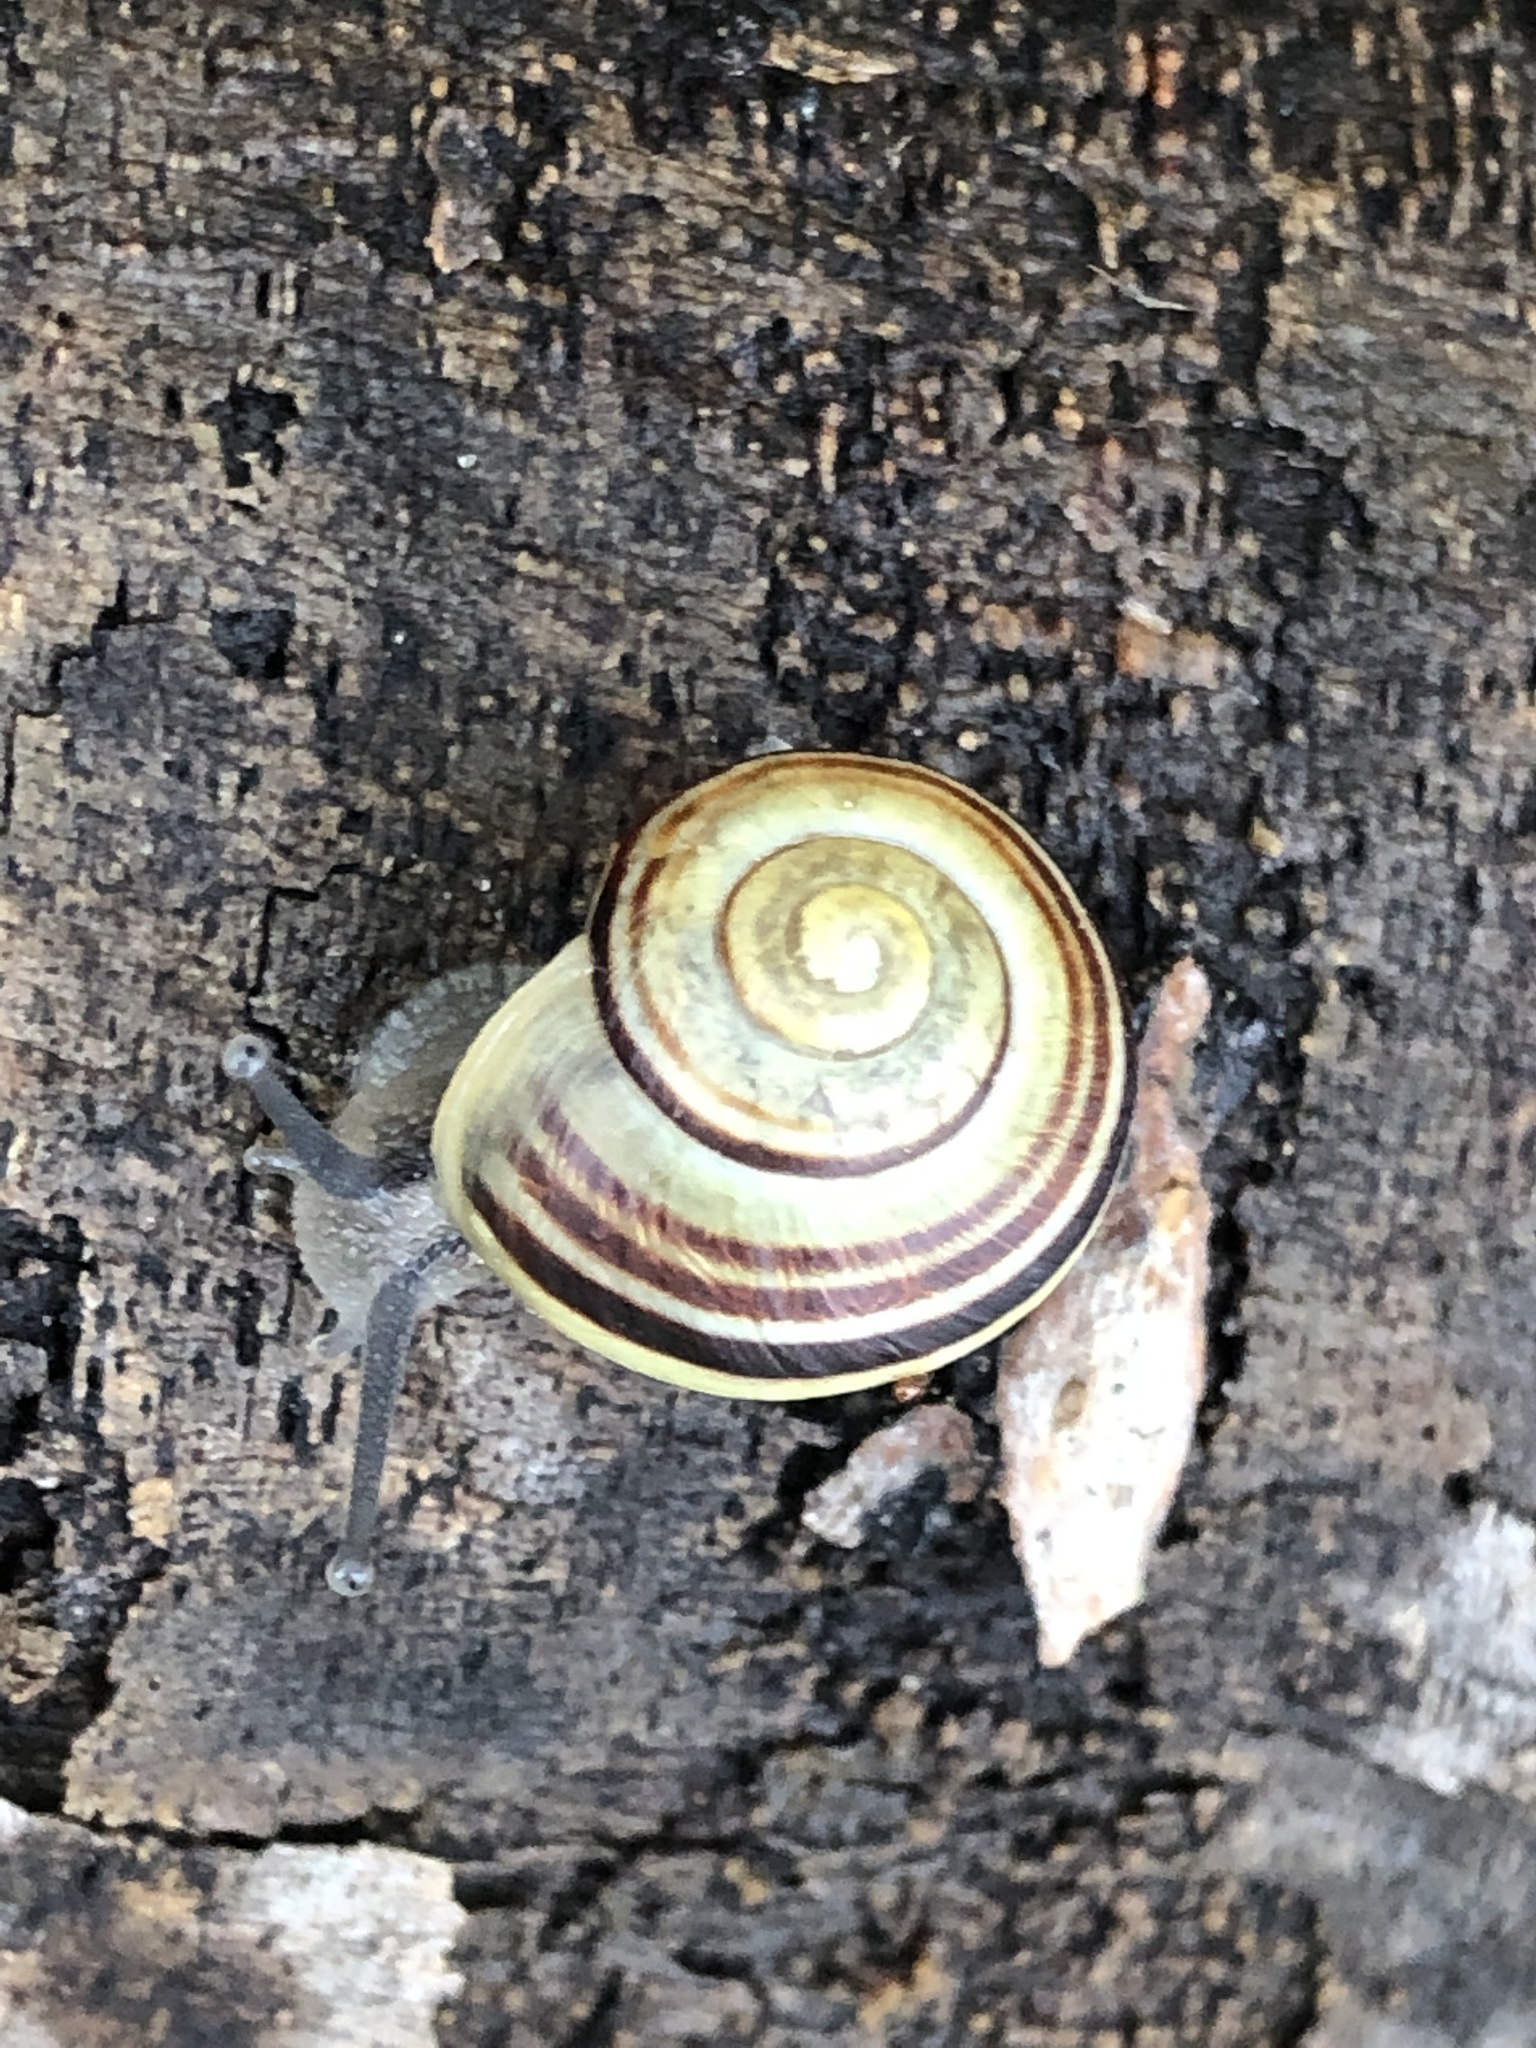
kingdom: Animalia
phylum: Mollusca
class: Gastropoda
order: Stylommatophora
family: Helicidae
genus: Cepaea
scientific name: Cepaea
